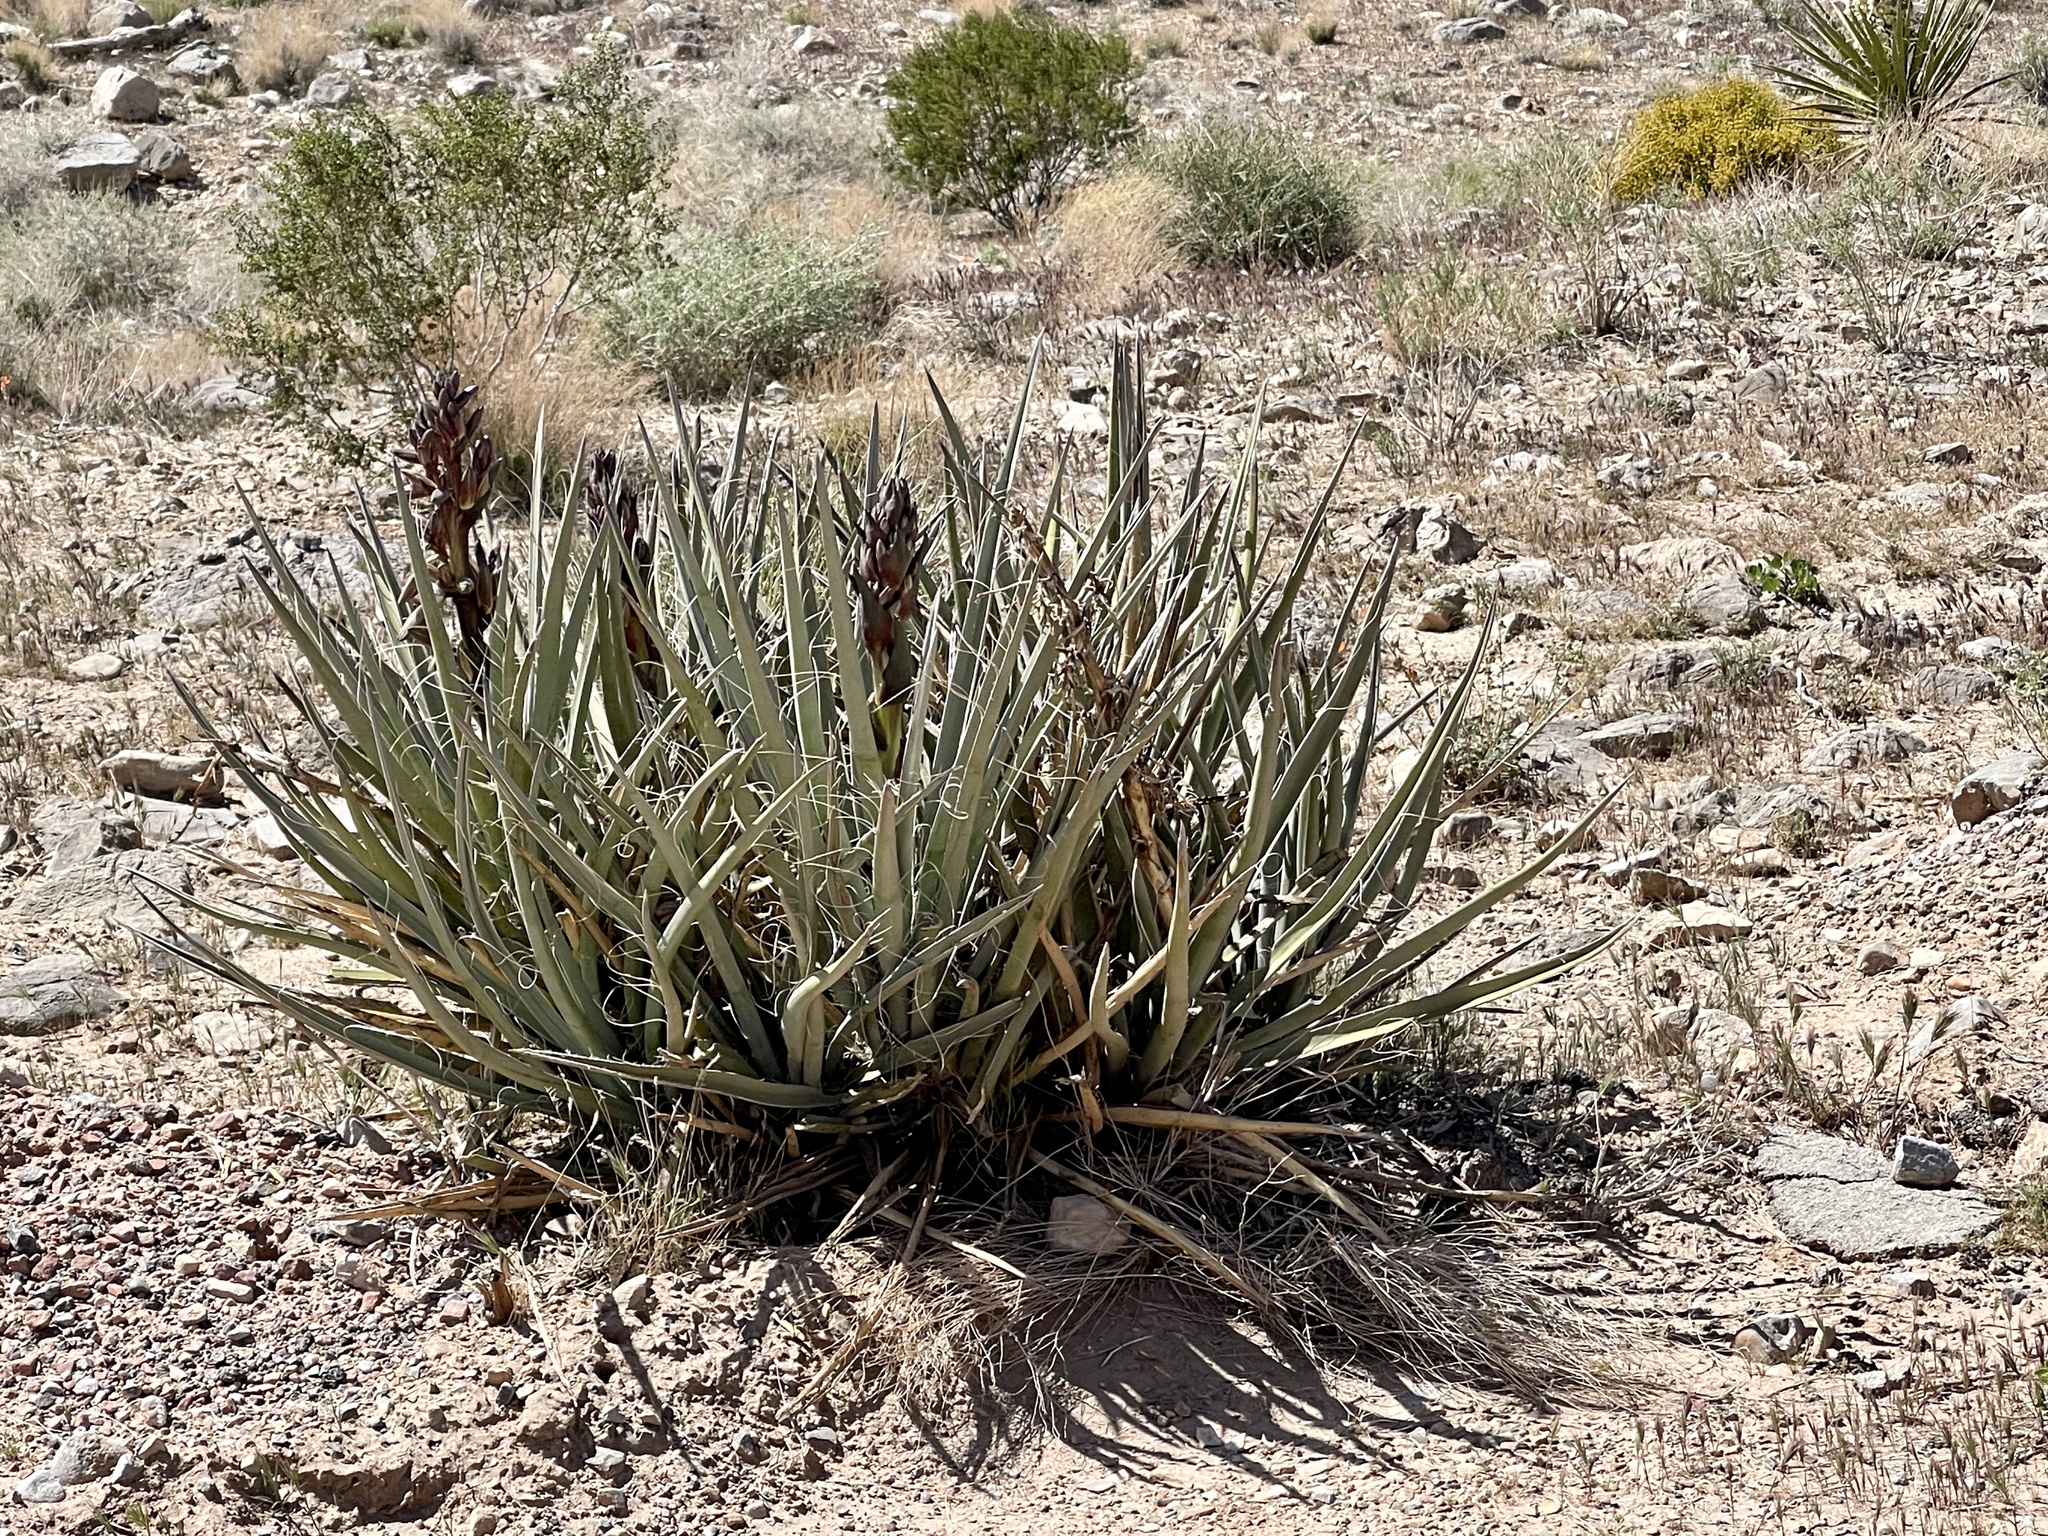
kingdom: Plantae
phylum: Tracheophyta
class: Liliopsida
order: Asparagales
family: Asparagaceae
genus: Yucca
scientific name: Yucca baccata
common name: Banana yucca
